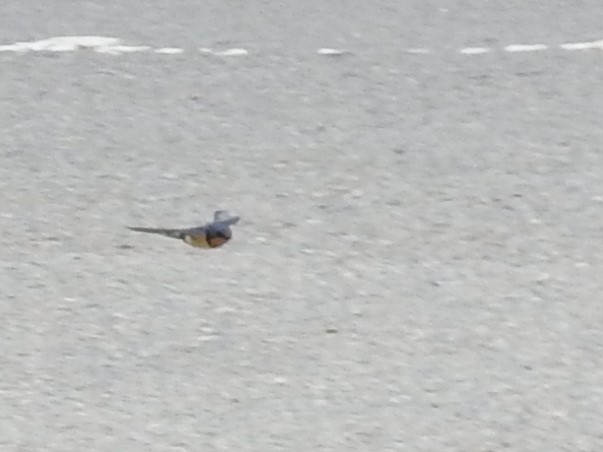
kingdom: Animalia
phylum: Chordata
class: Aves
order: Passeriformes
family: Hirundinidae
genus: Hirundo
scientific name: Hirundo rustica
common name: Barn swallow
